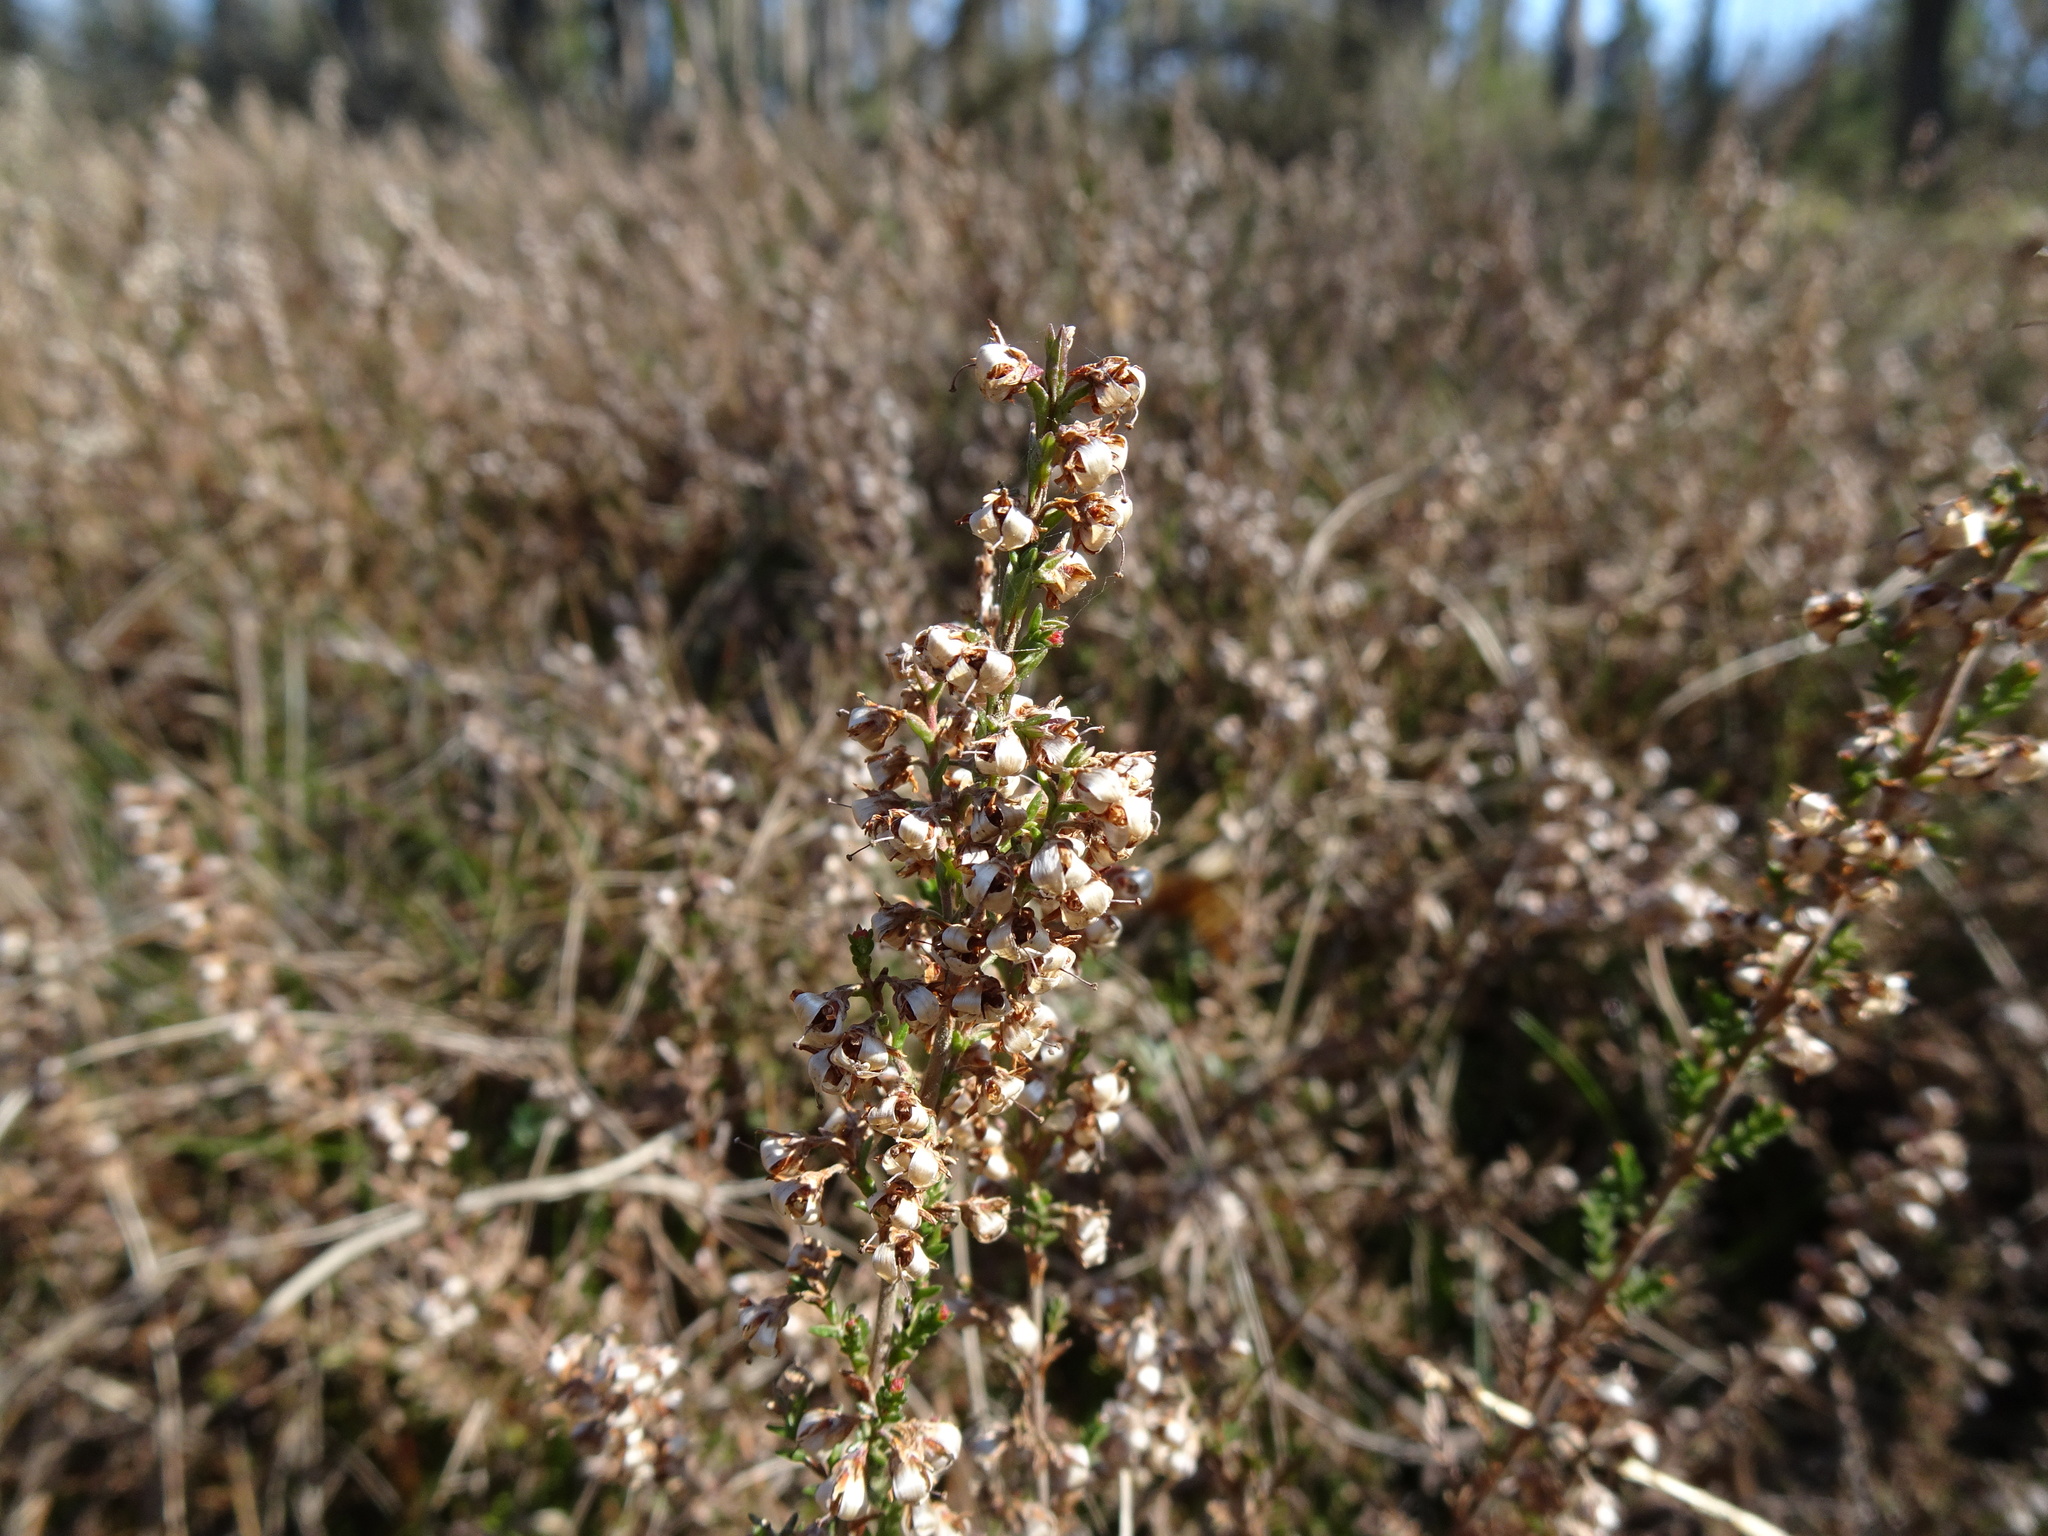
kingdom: Plantae
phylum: Tracheophyta
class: Magnoliopsida
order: Ericales
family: Ericaceae
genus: Calluna
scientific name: Calluna vulgaris
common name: Heather
